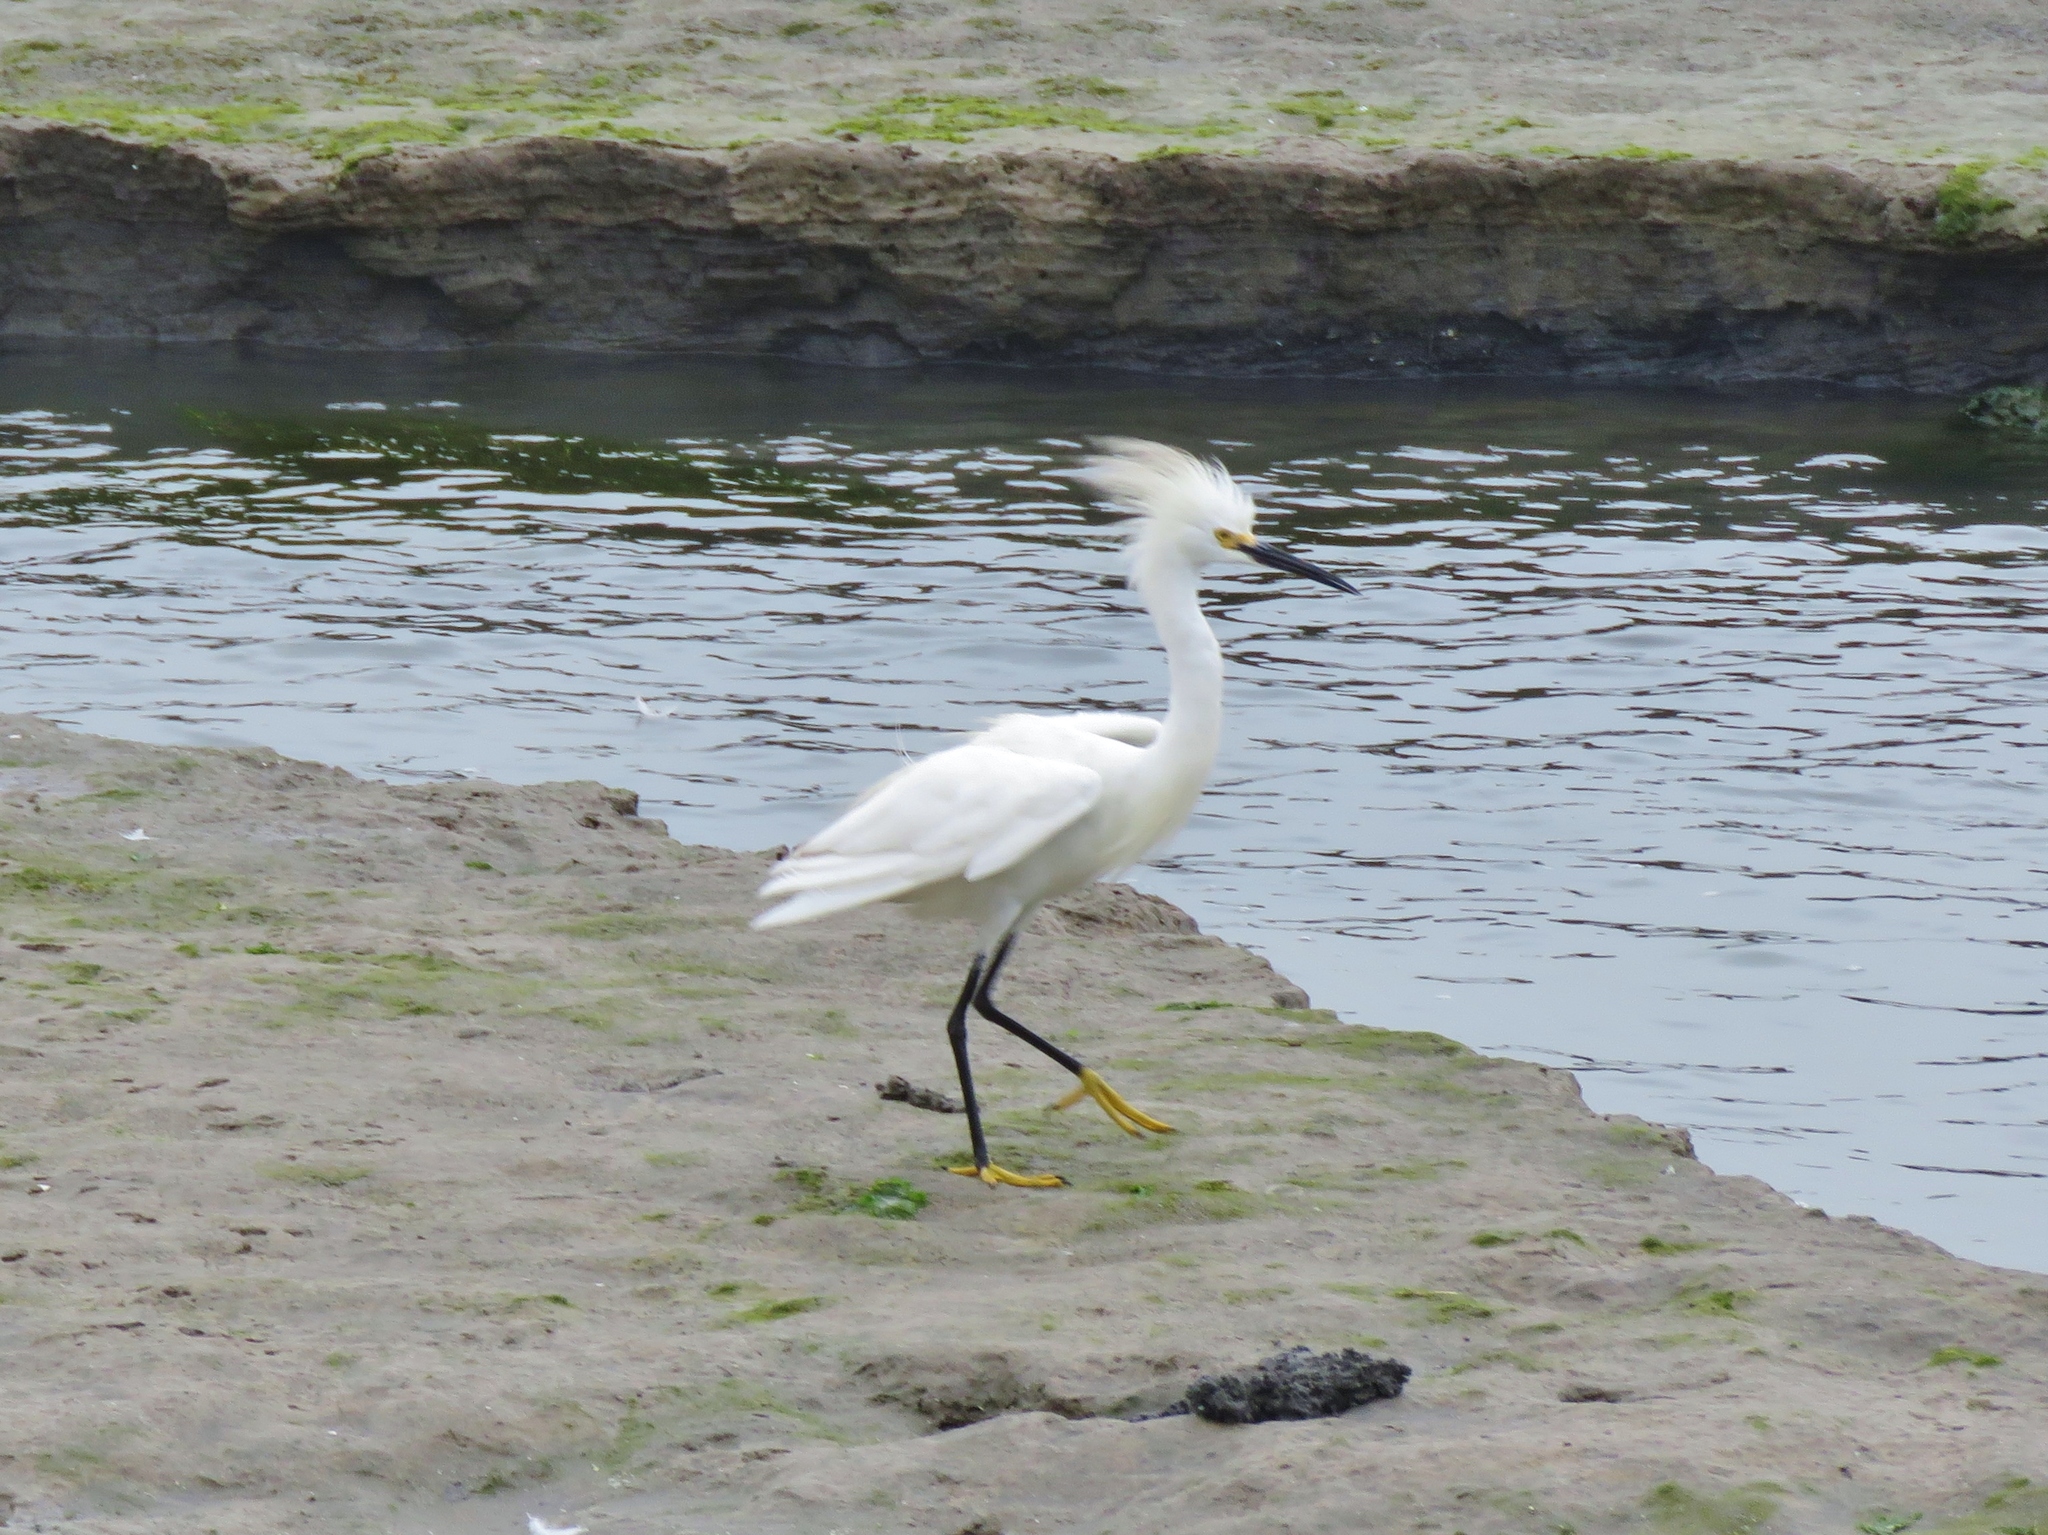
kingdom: Animalia
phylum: Chordata
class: Aves
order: Pelecaniformes
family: Ardeidae
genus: Egretta
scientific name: Egretta thula
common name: Snowy egret
